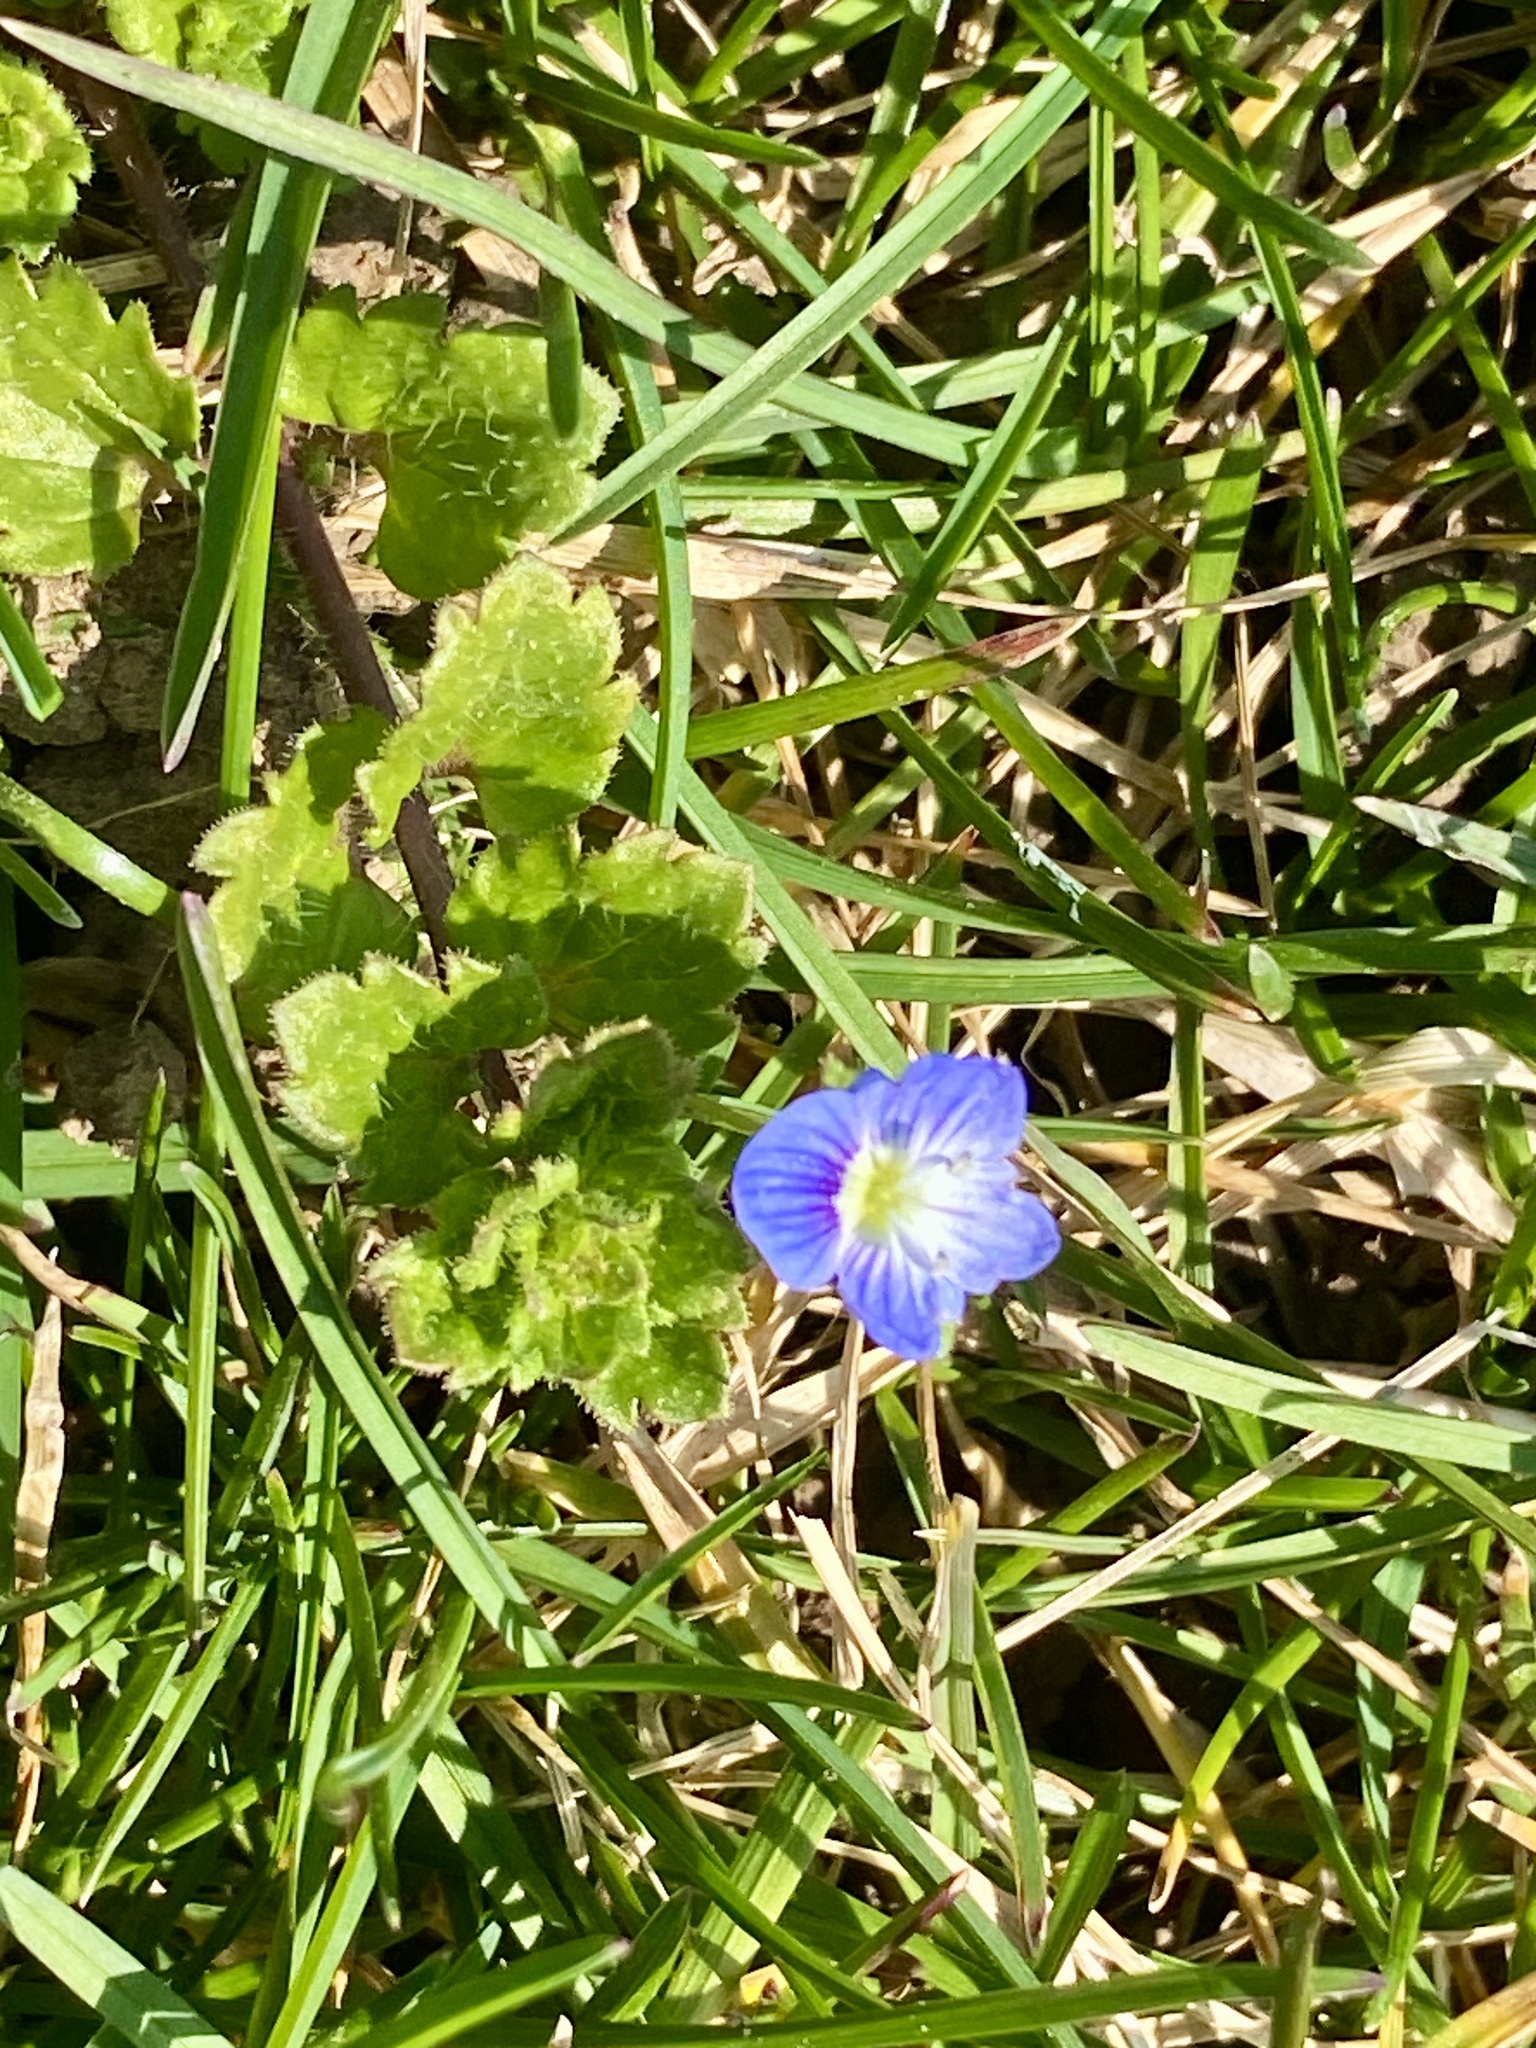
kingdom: Plantae
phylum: Tracheophyta
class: Magnoliopsida
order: Lamiales
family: Plantaginaceae
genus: Veronica
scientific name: Veronica persica
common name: Common field-speedwell
